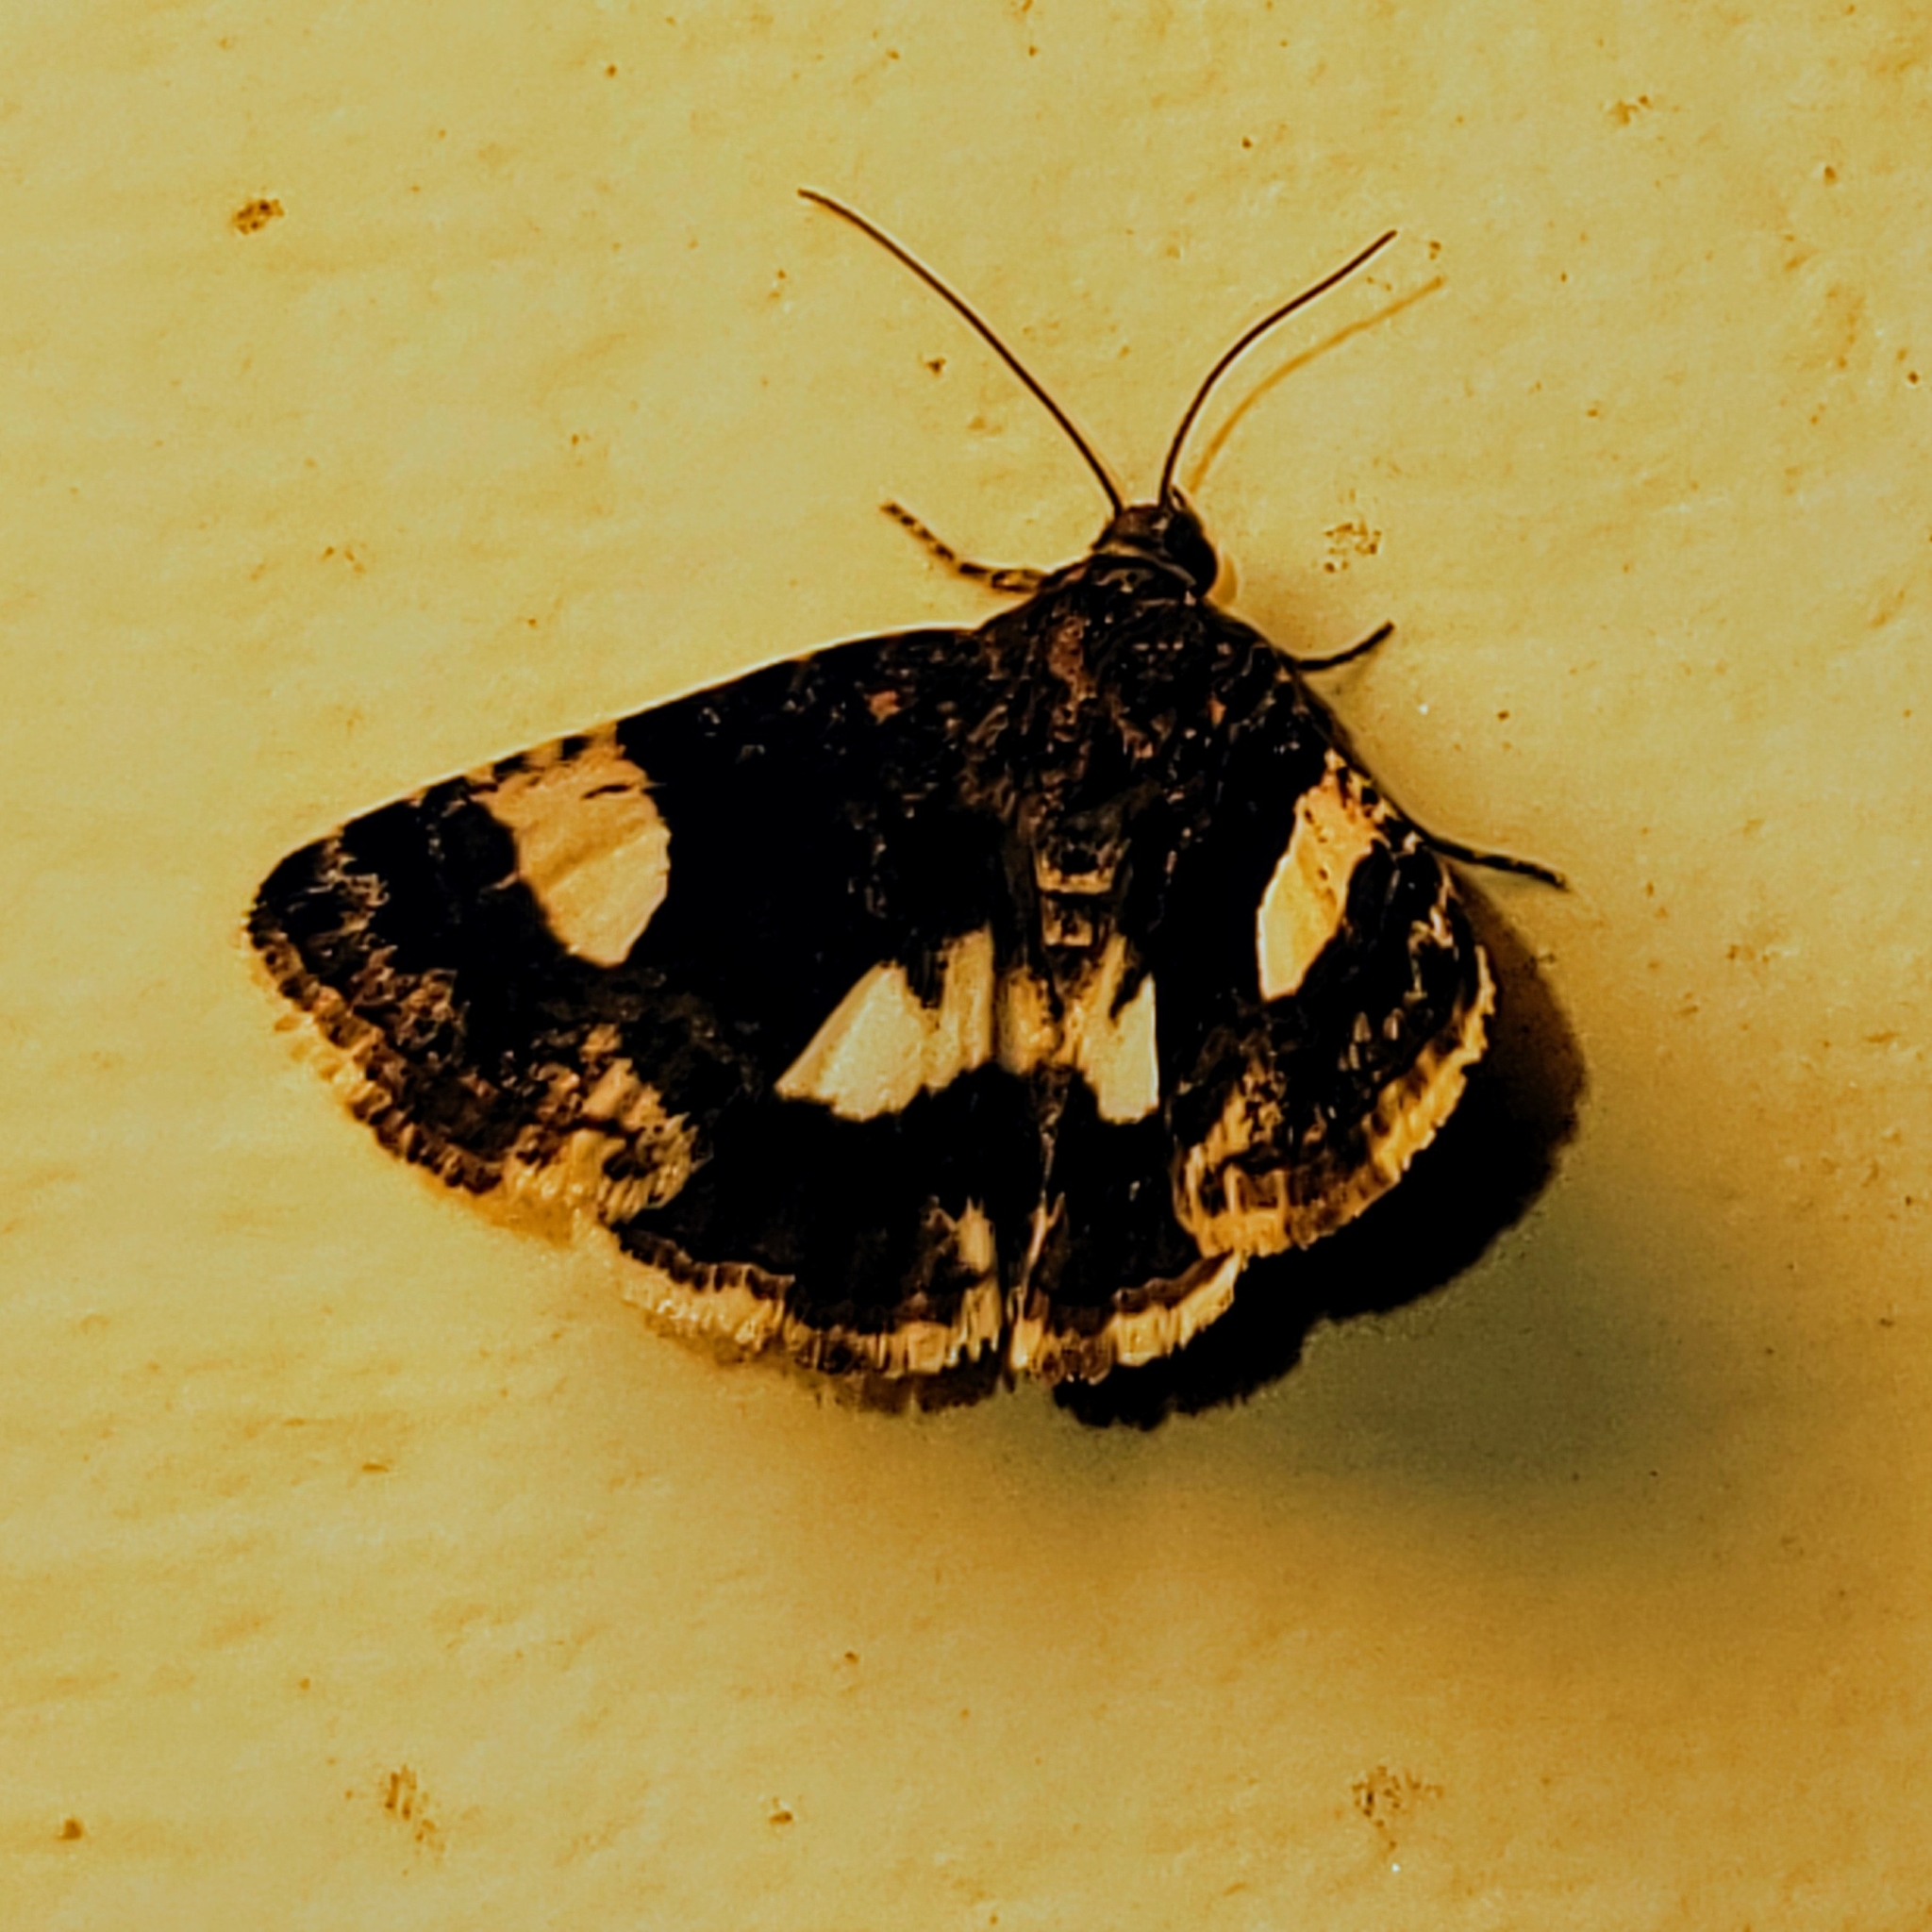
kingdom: Animalia
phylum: Arthropoda
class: Insecta
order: Lepidoptera
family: Erebidae
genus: Tyta
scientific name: Tyta luctuosa
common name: Four-spotted
